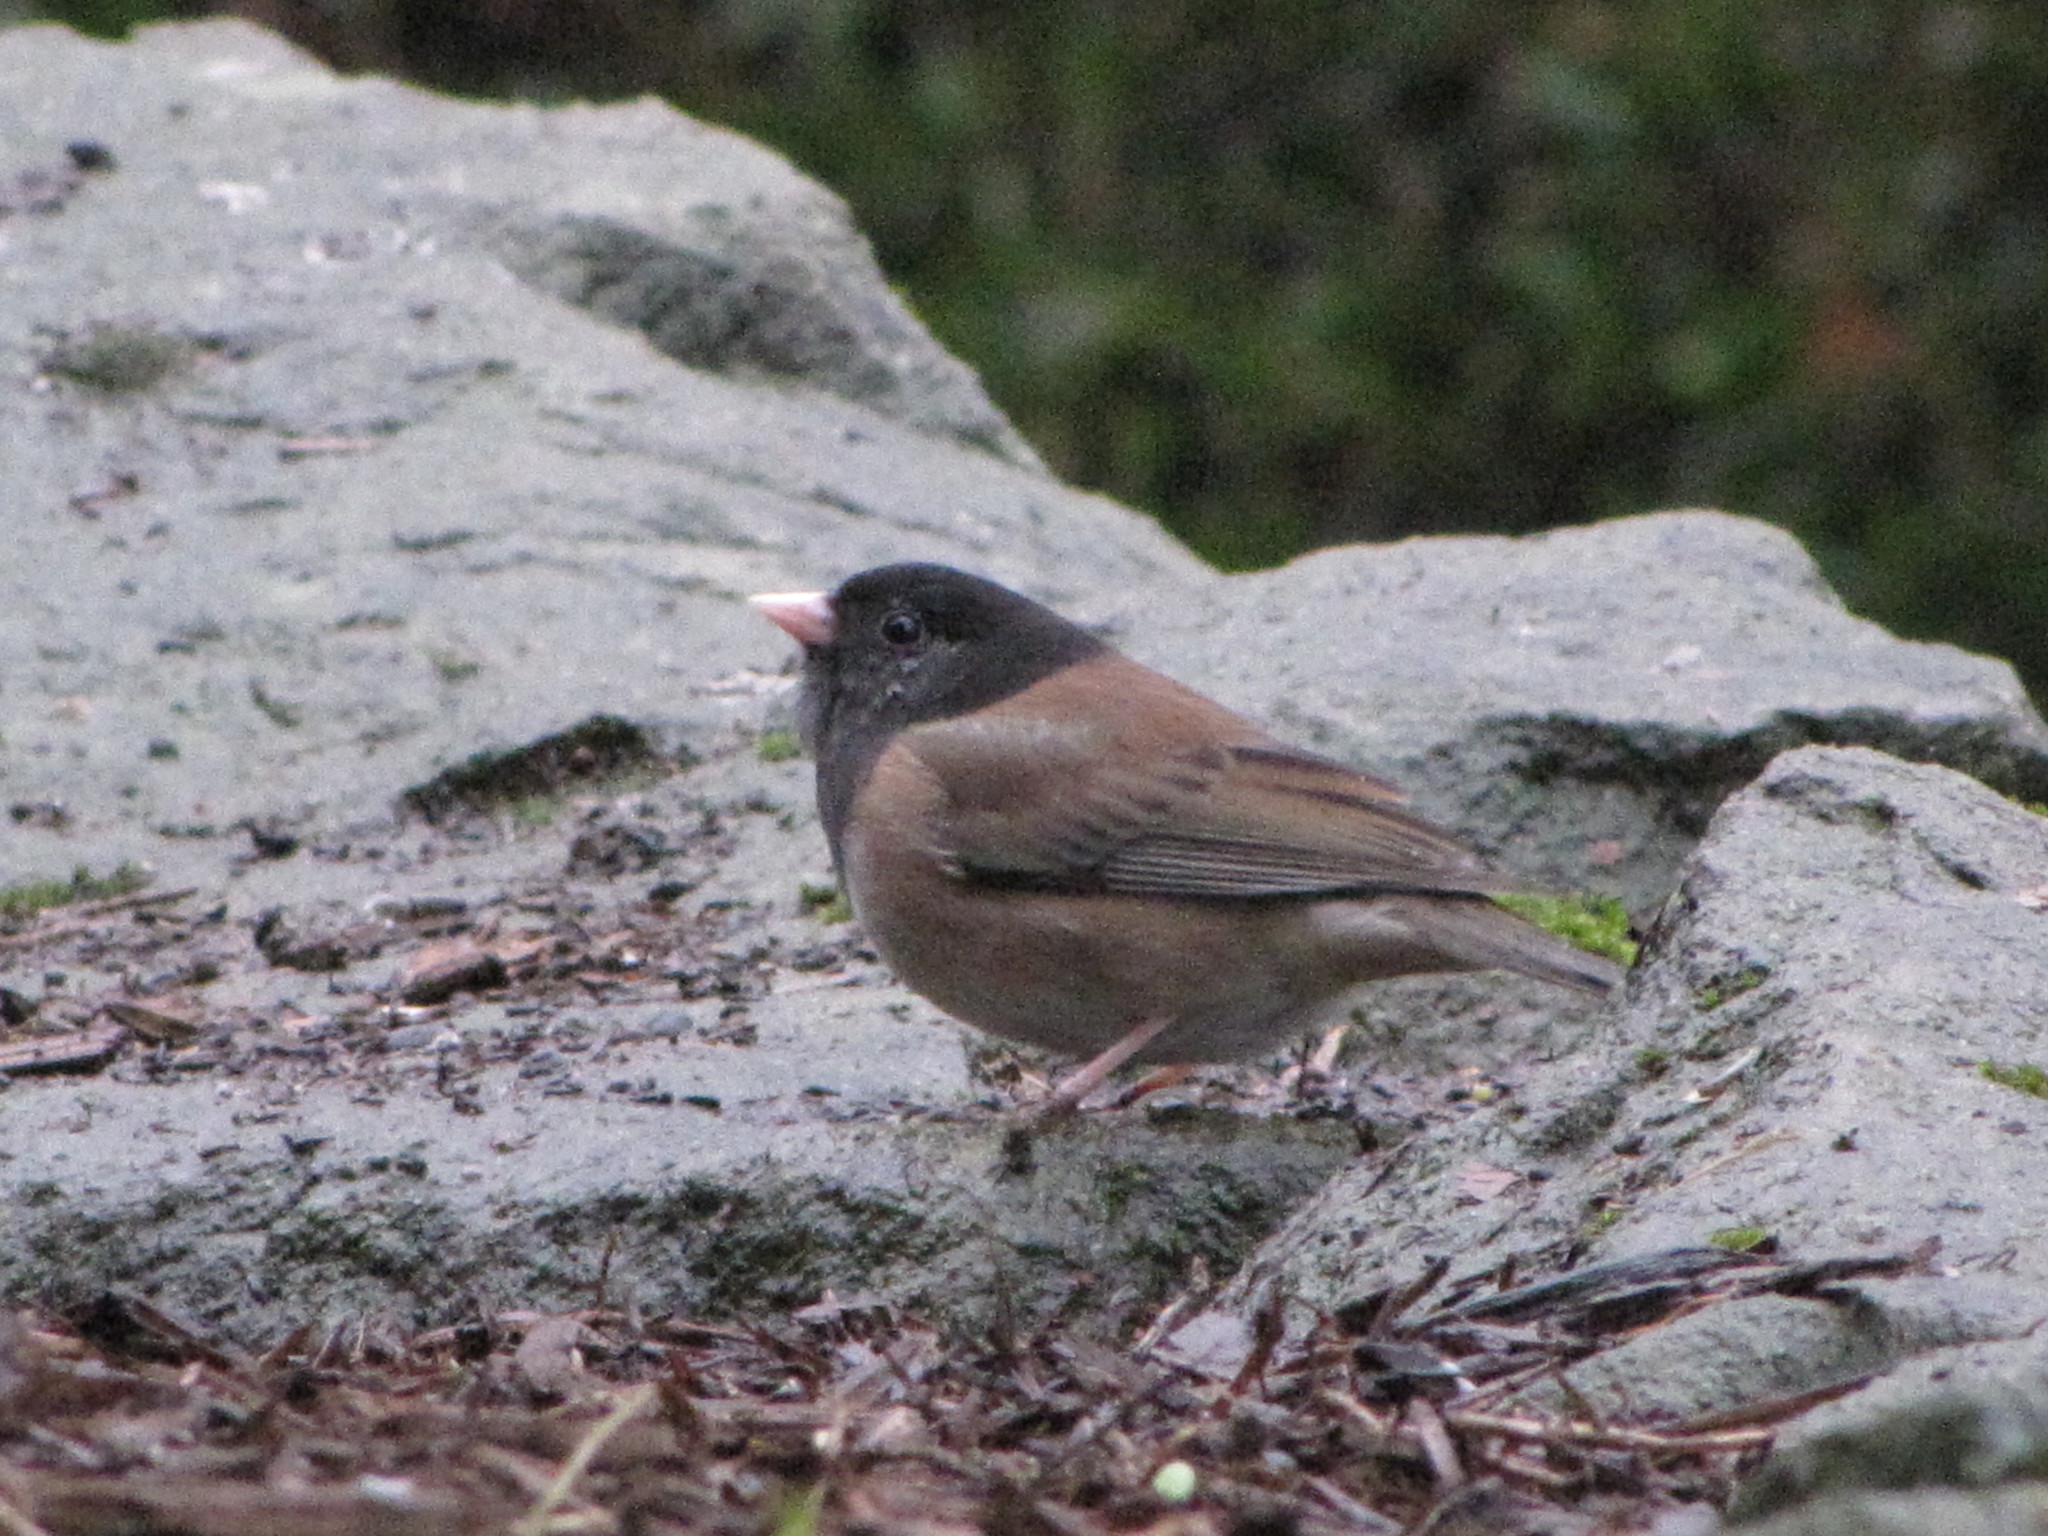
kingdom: Animalia
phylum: Chordata
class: Aves
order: Passeriformes
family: Passerellidae
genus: Junco
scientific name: Junco hyemalis
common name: Dark-eyed junco
